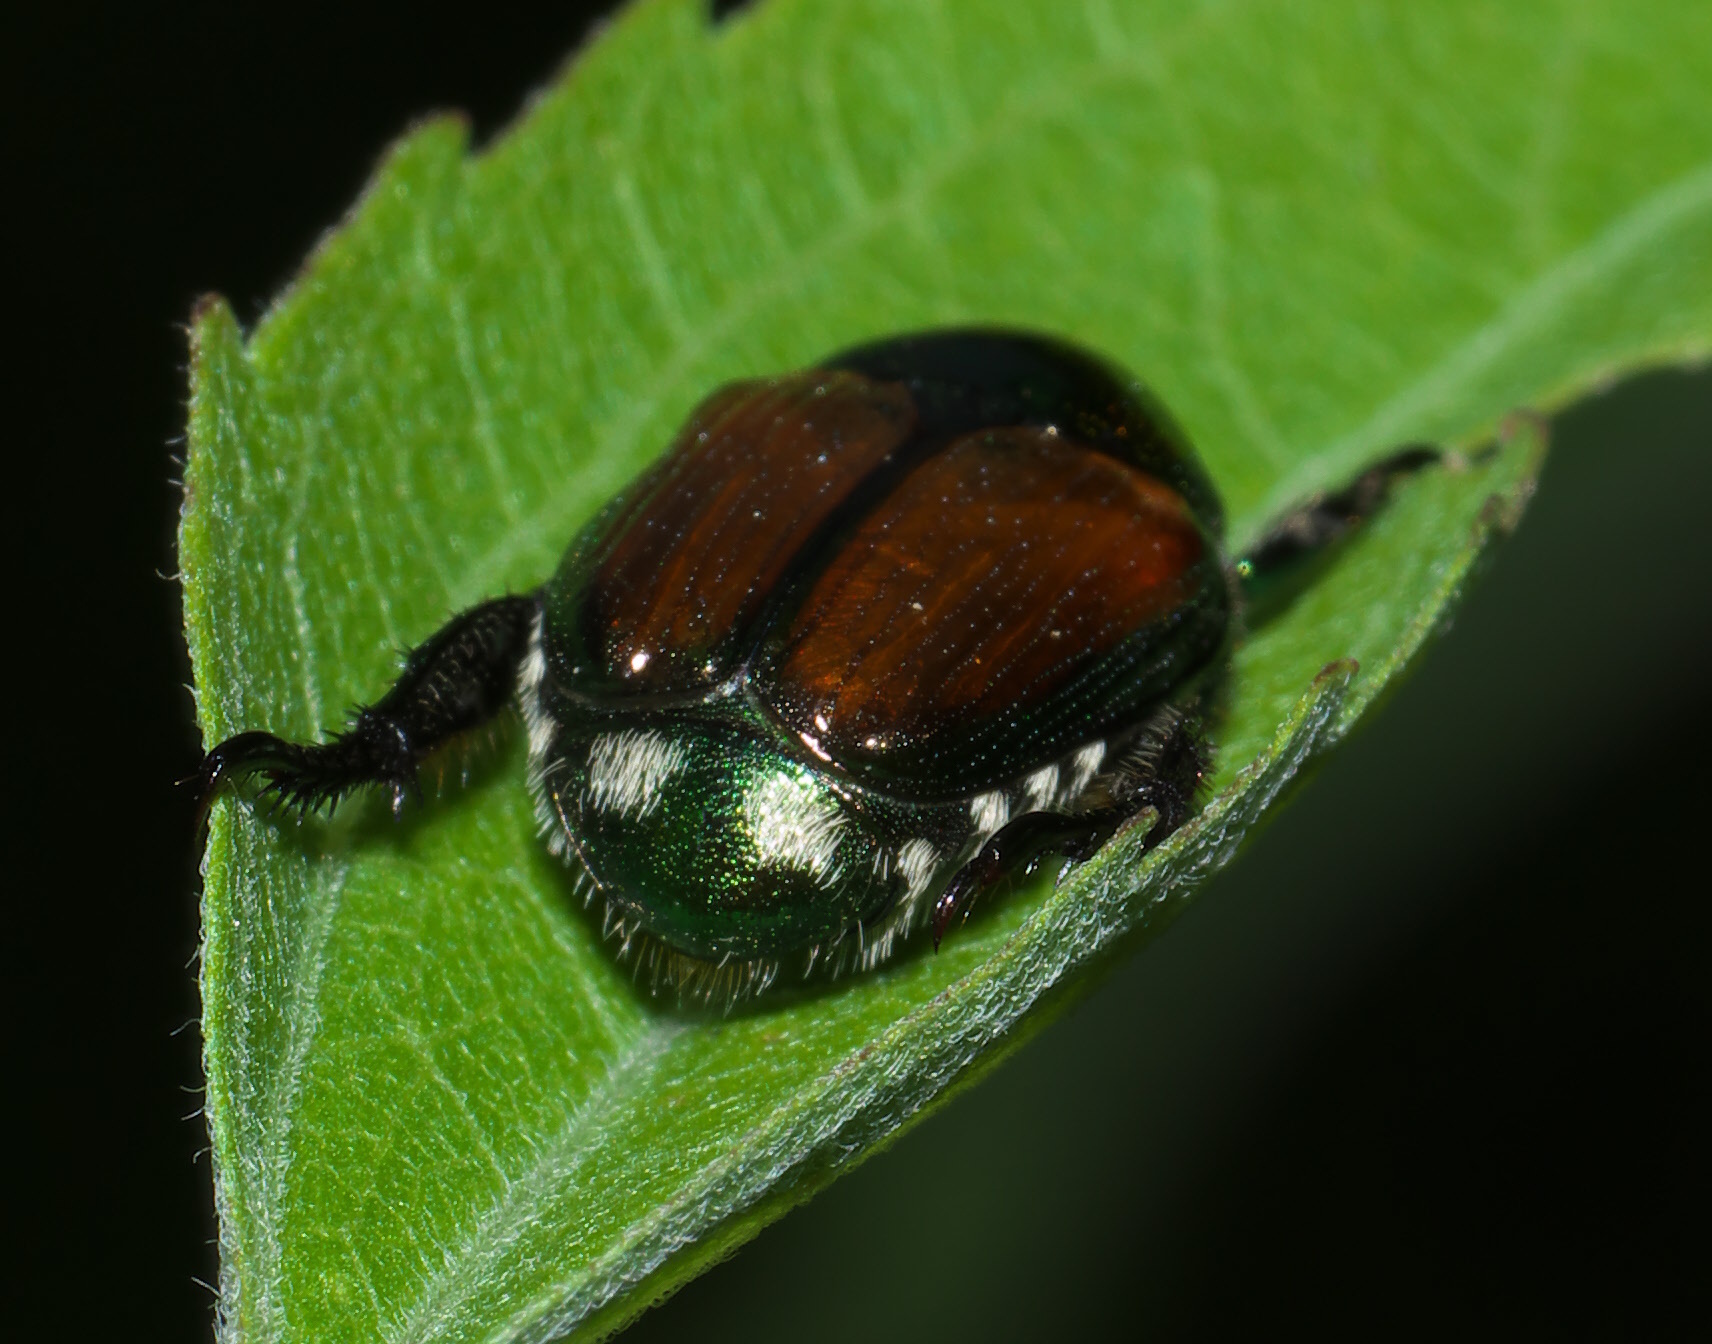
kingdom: Animalia
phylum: Arthropoda
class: Insecta
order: Coleoptera
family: Scarabaeidae
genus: Popillia
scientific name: Popillia japonica
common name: Japanese beetle
